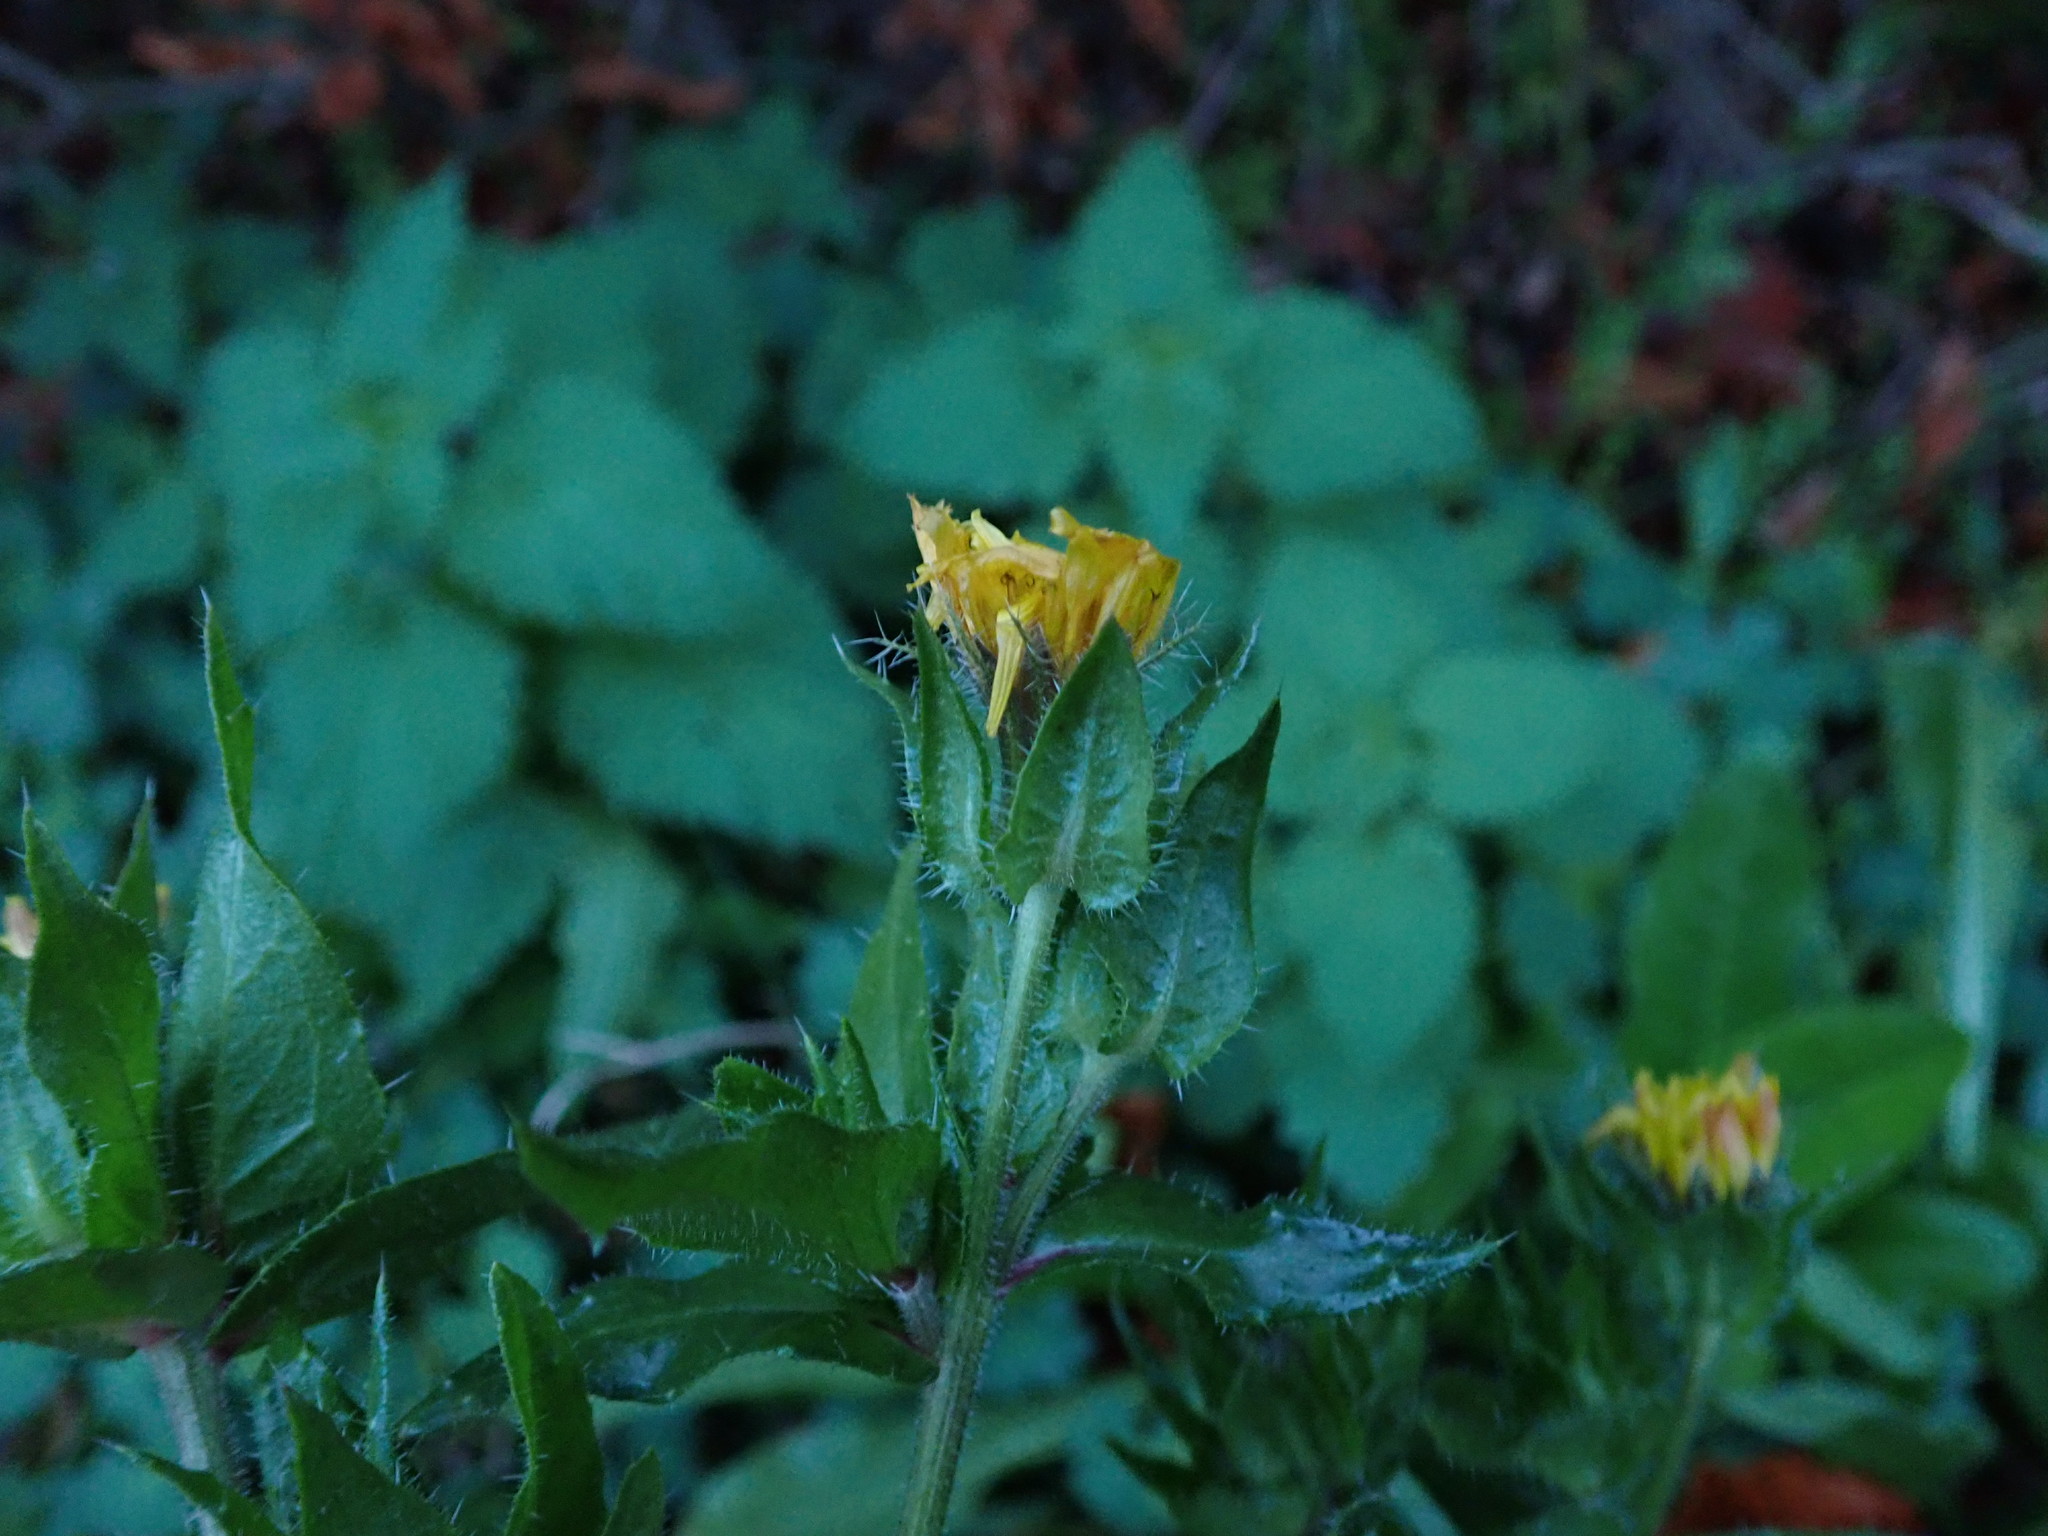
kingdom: Plantae
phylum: Tracheophyta
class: Magnoliopsida
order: Asterales
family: Asteraceae
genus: Helminthotheca
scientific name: Helminthotheca echioides
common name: Ox-tongue
